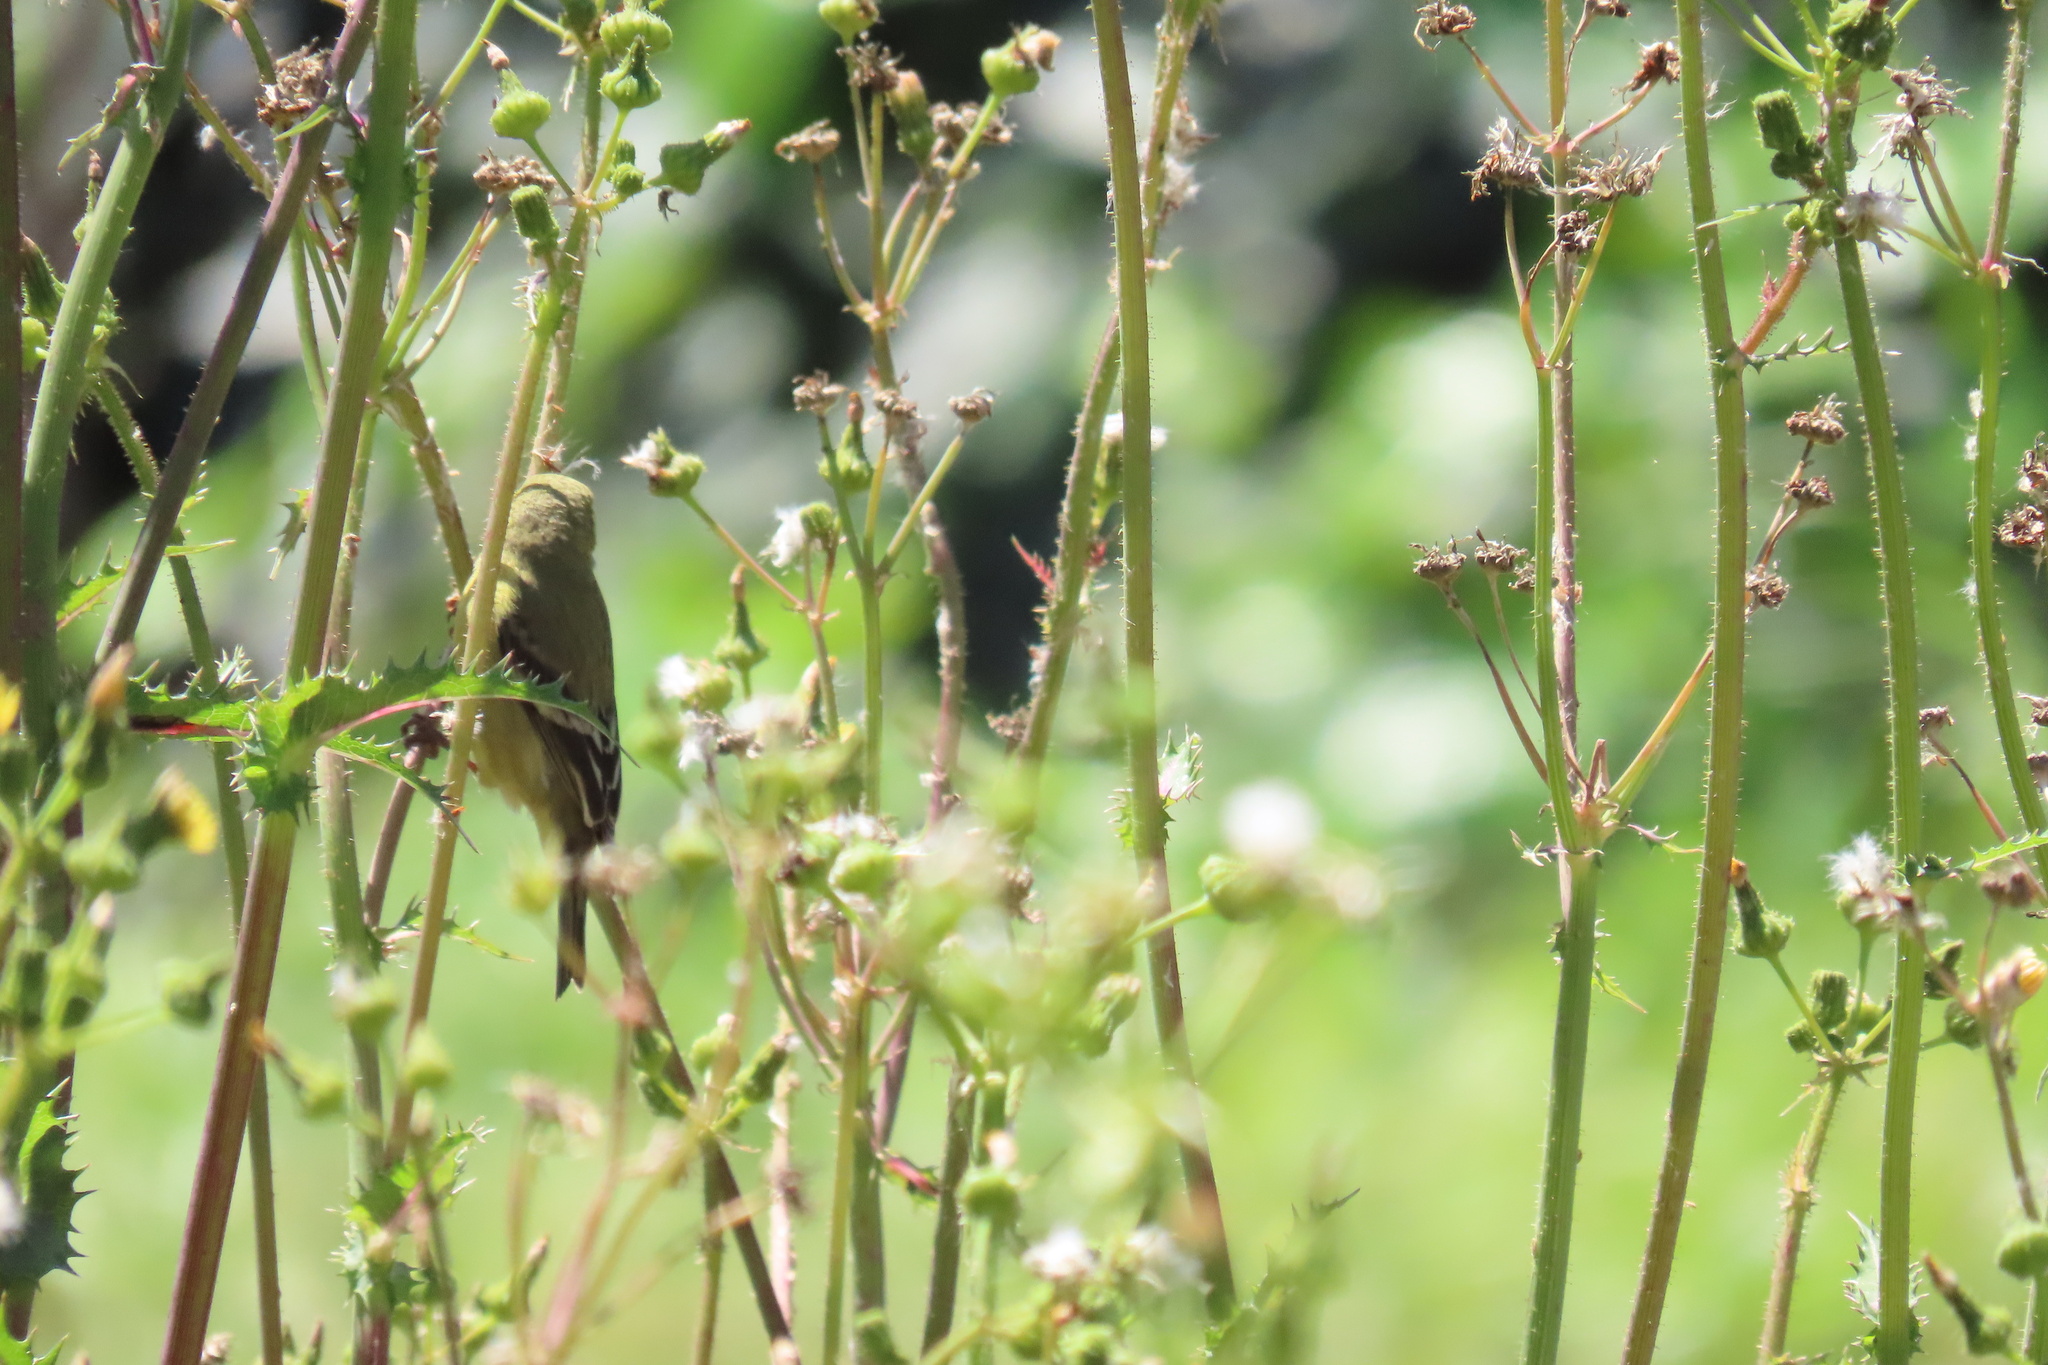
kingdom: Animalia
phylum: Chordata
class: Aves
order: Passeriformes
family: Fringillidae
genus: Spinus
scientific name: Spinus psaltria
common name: Lesser goldfinch
